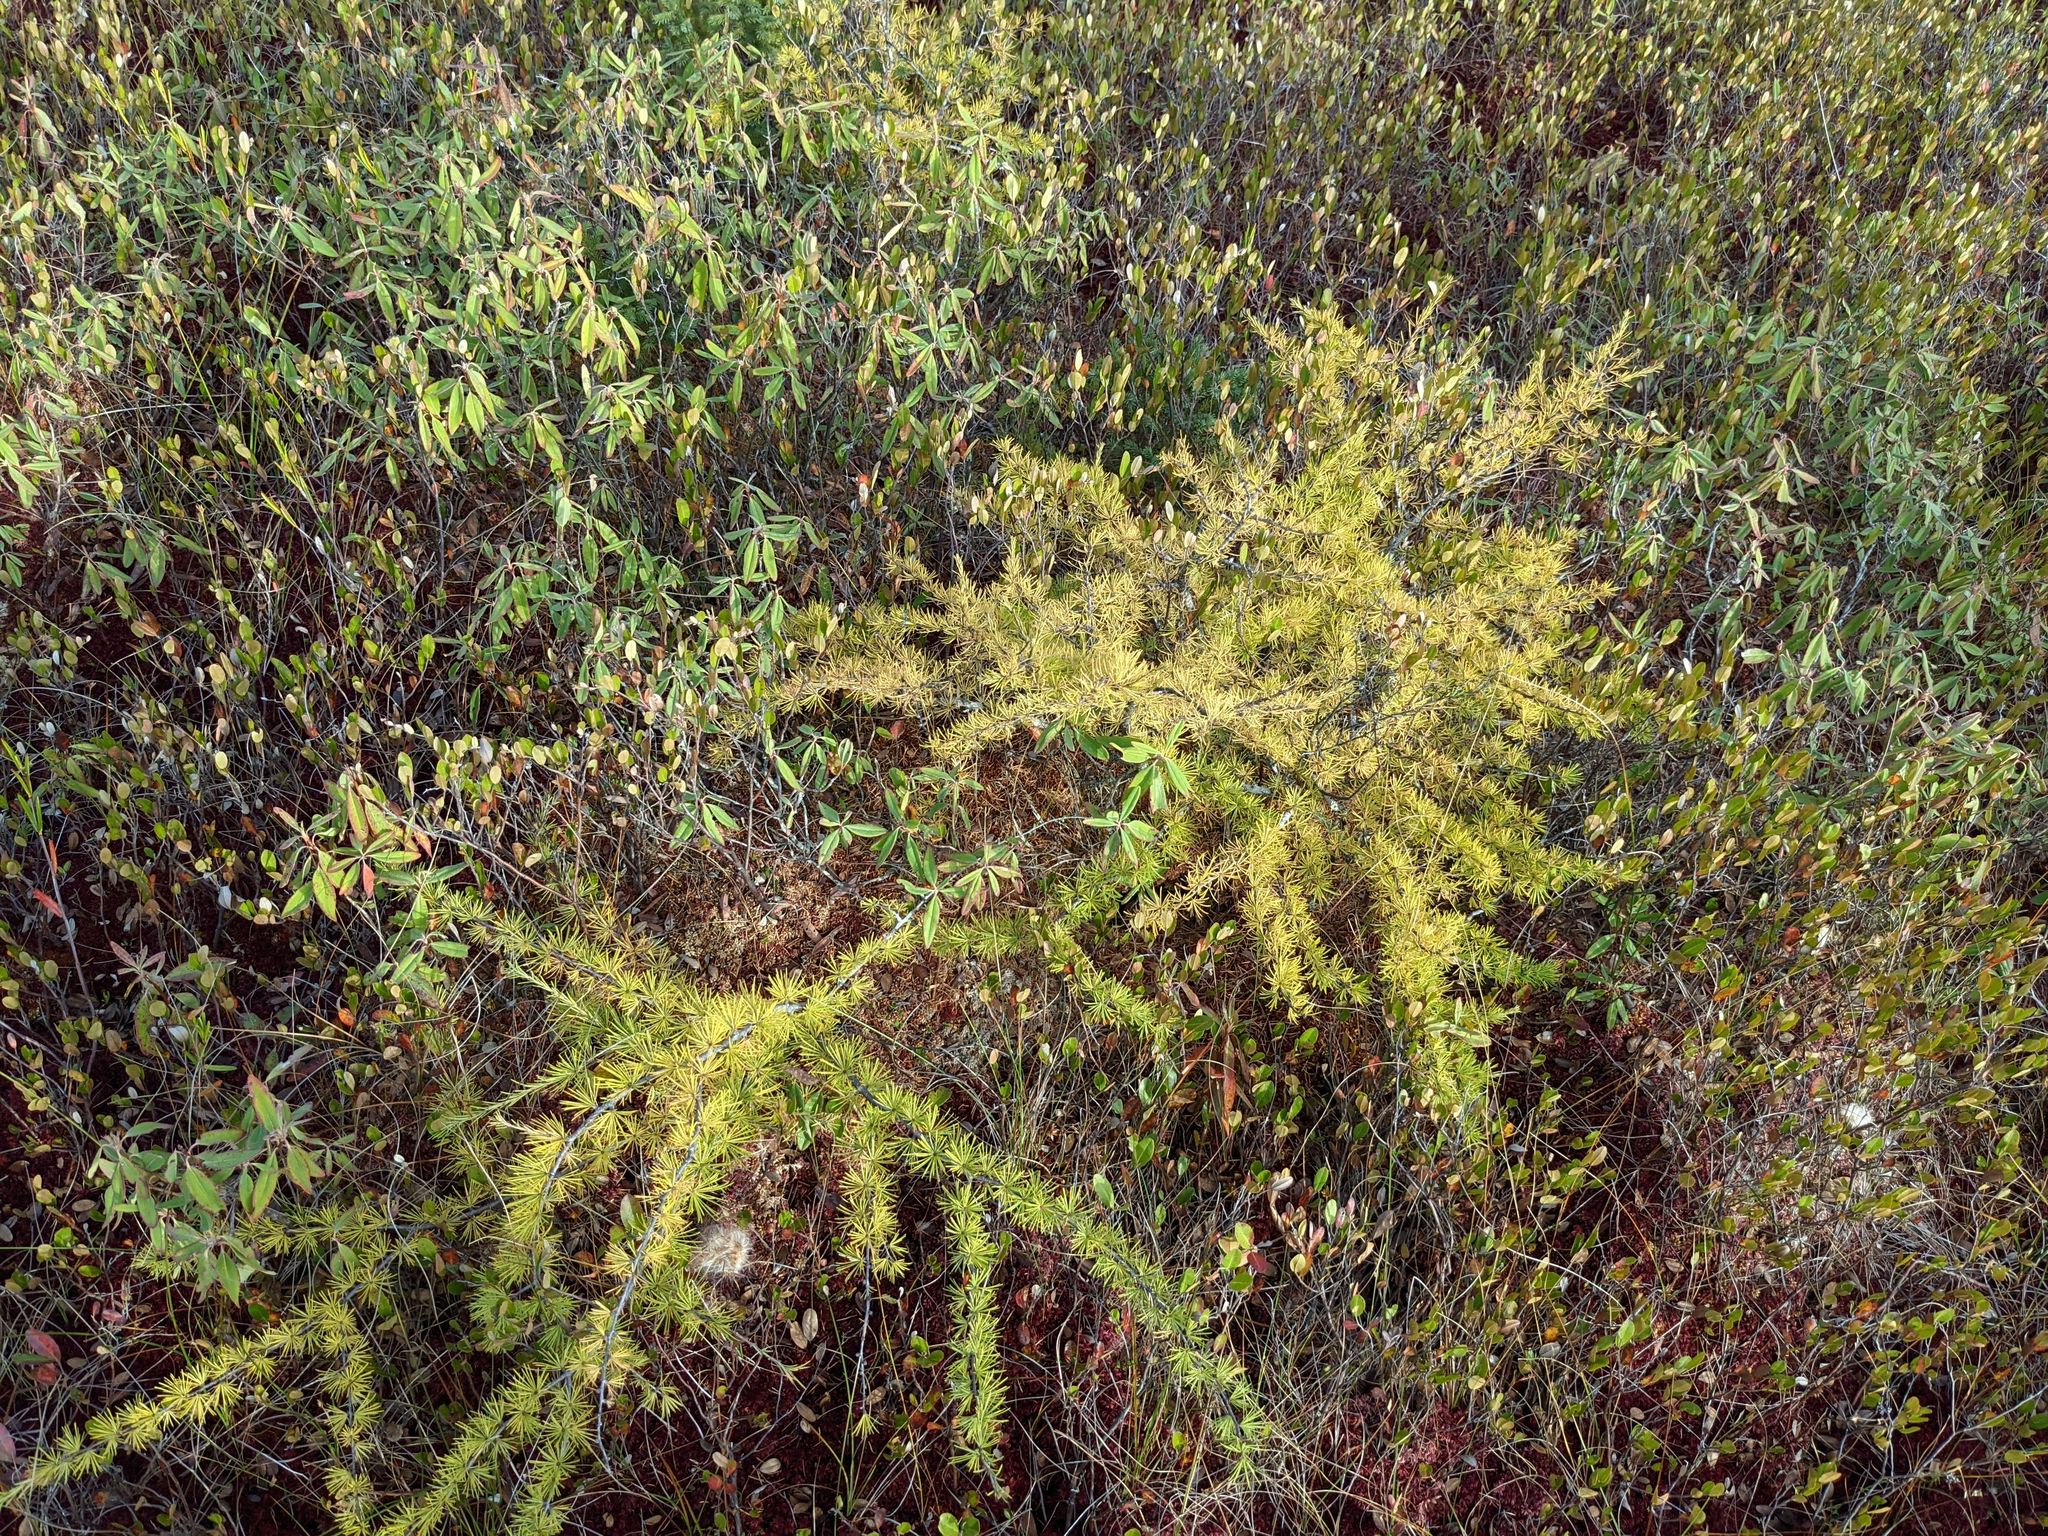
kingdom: Plantae
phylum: Tracheophyta
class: Pinopsida
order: Pinales
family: Pinaceae
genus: Larix
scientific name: Larix laricina
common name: American larch
